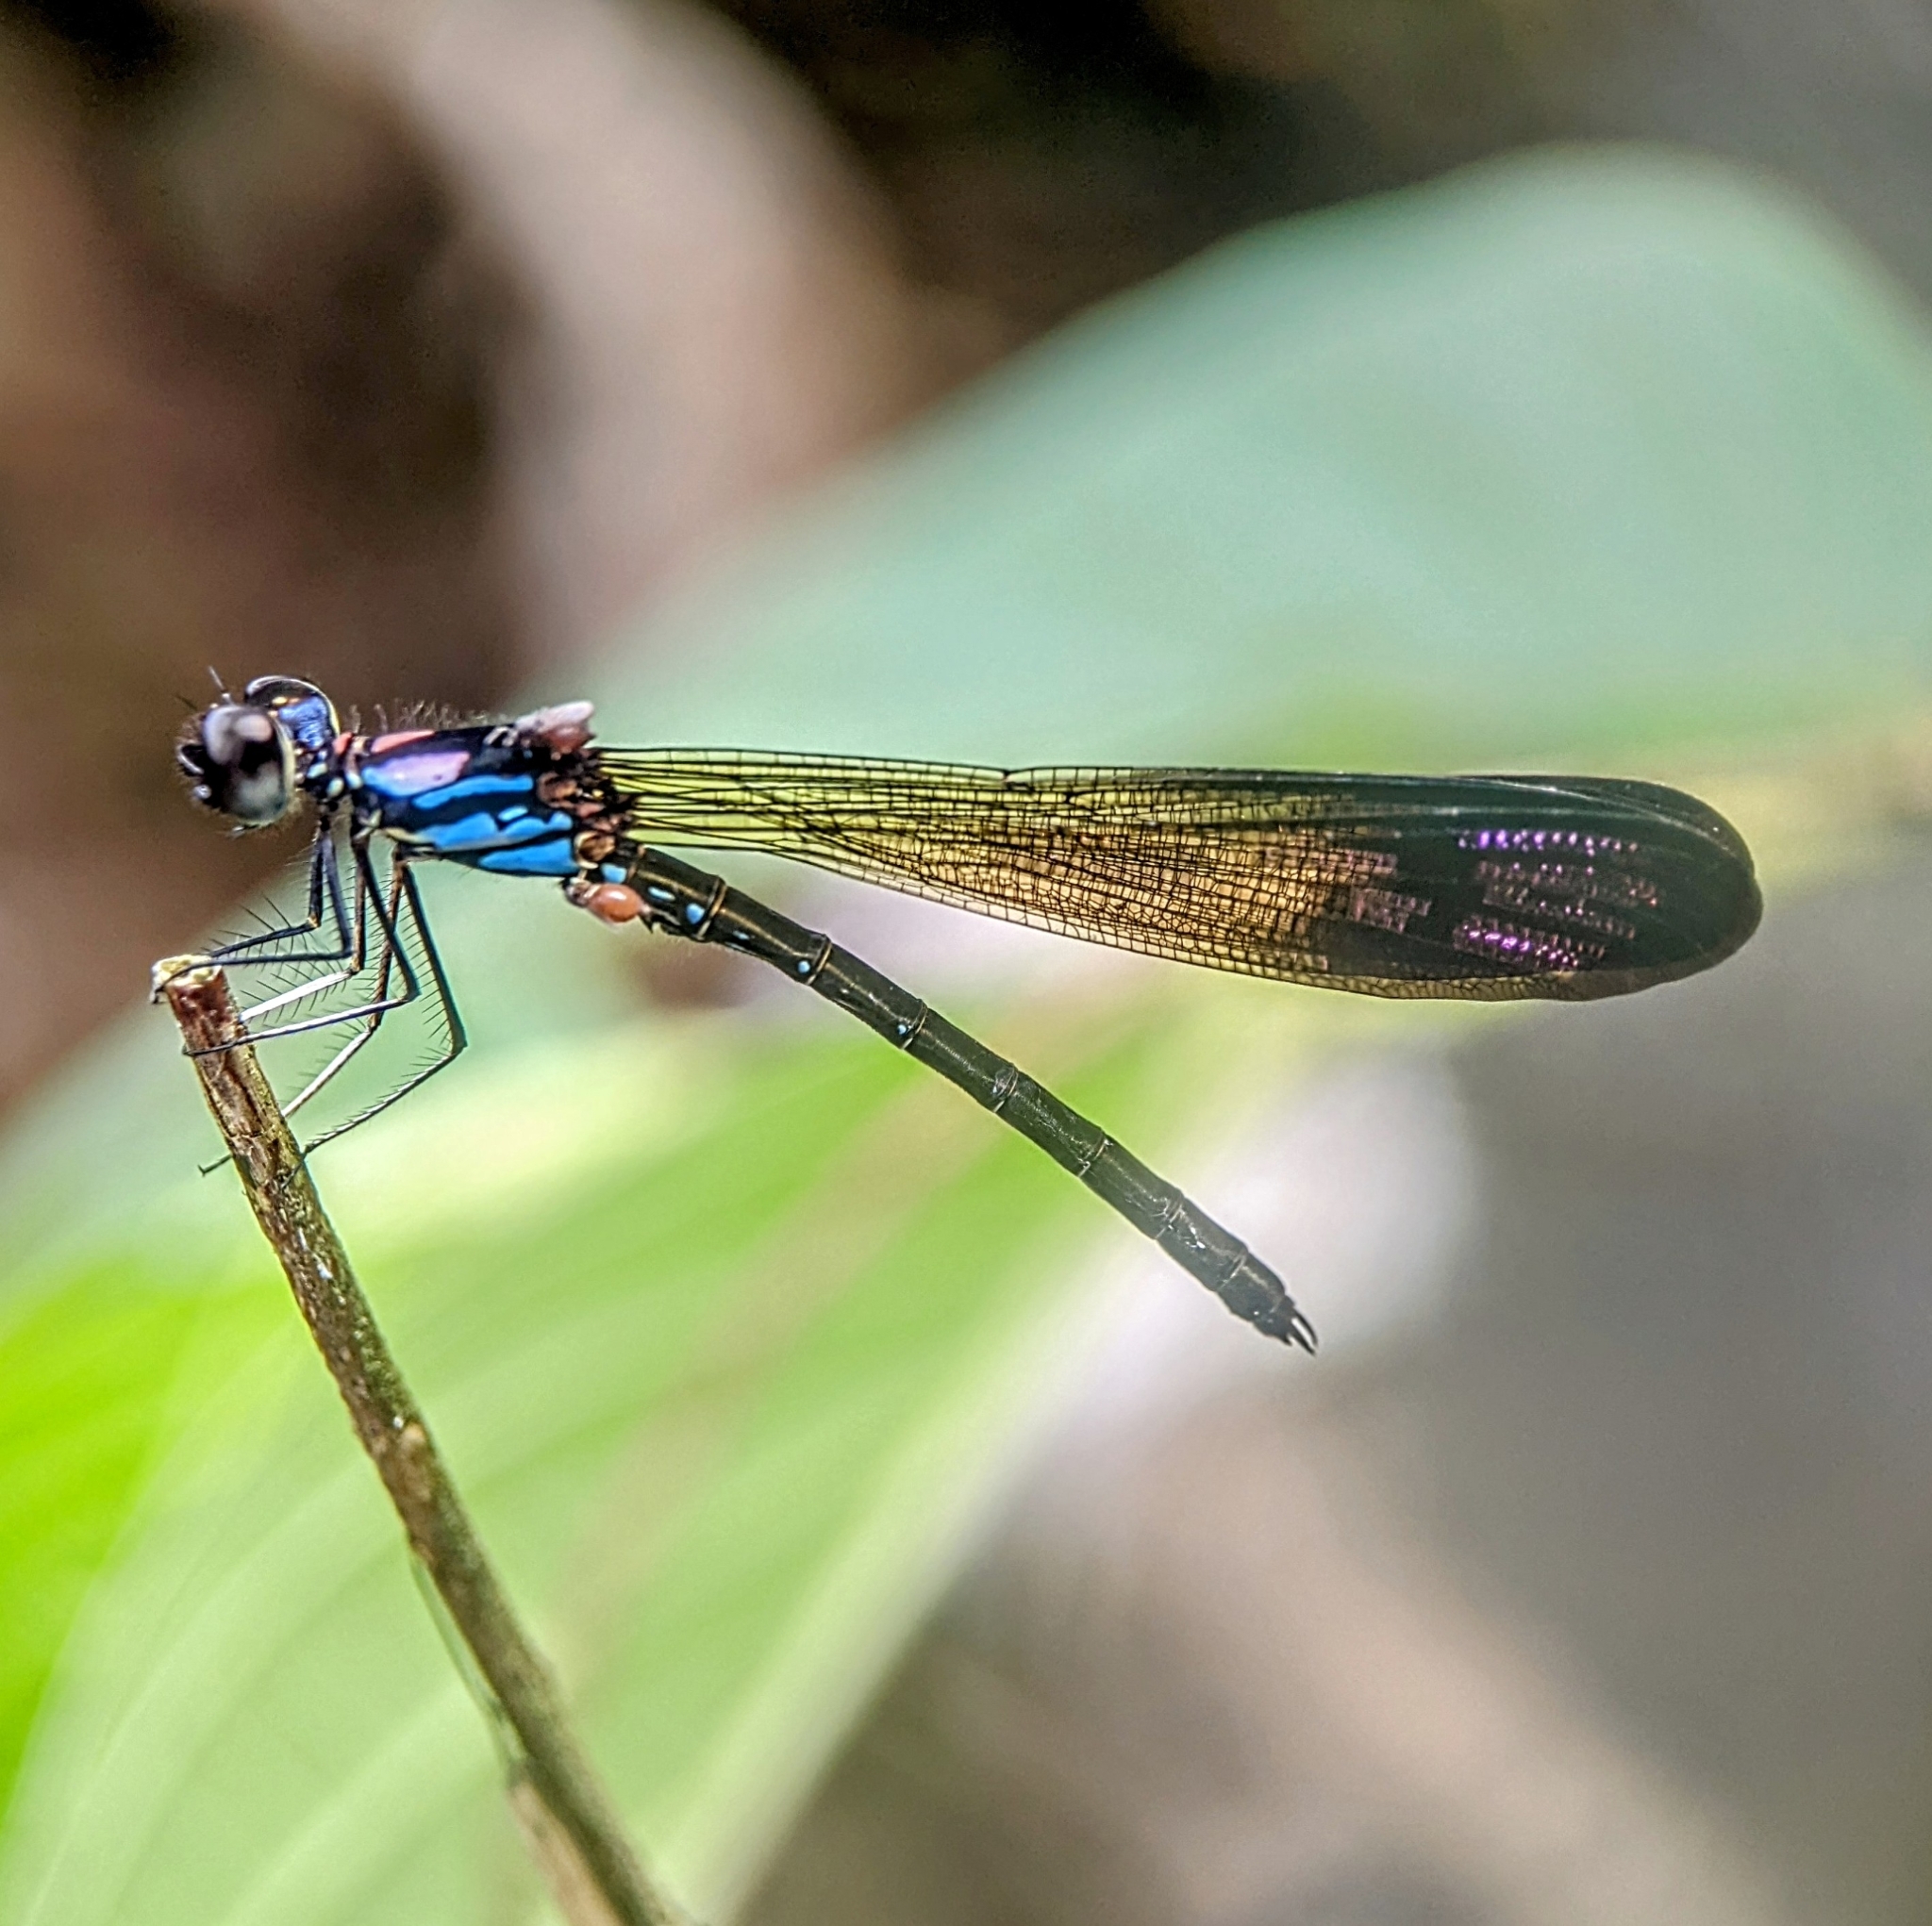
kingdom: Animalia
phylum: Arthropoda
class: Insecta
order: Odonata
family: Chlorocyphidae
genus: Heliocypha
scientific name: Heliocypha biforata
